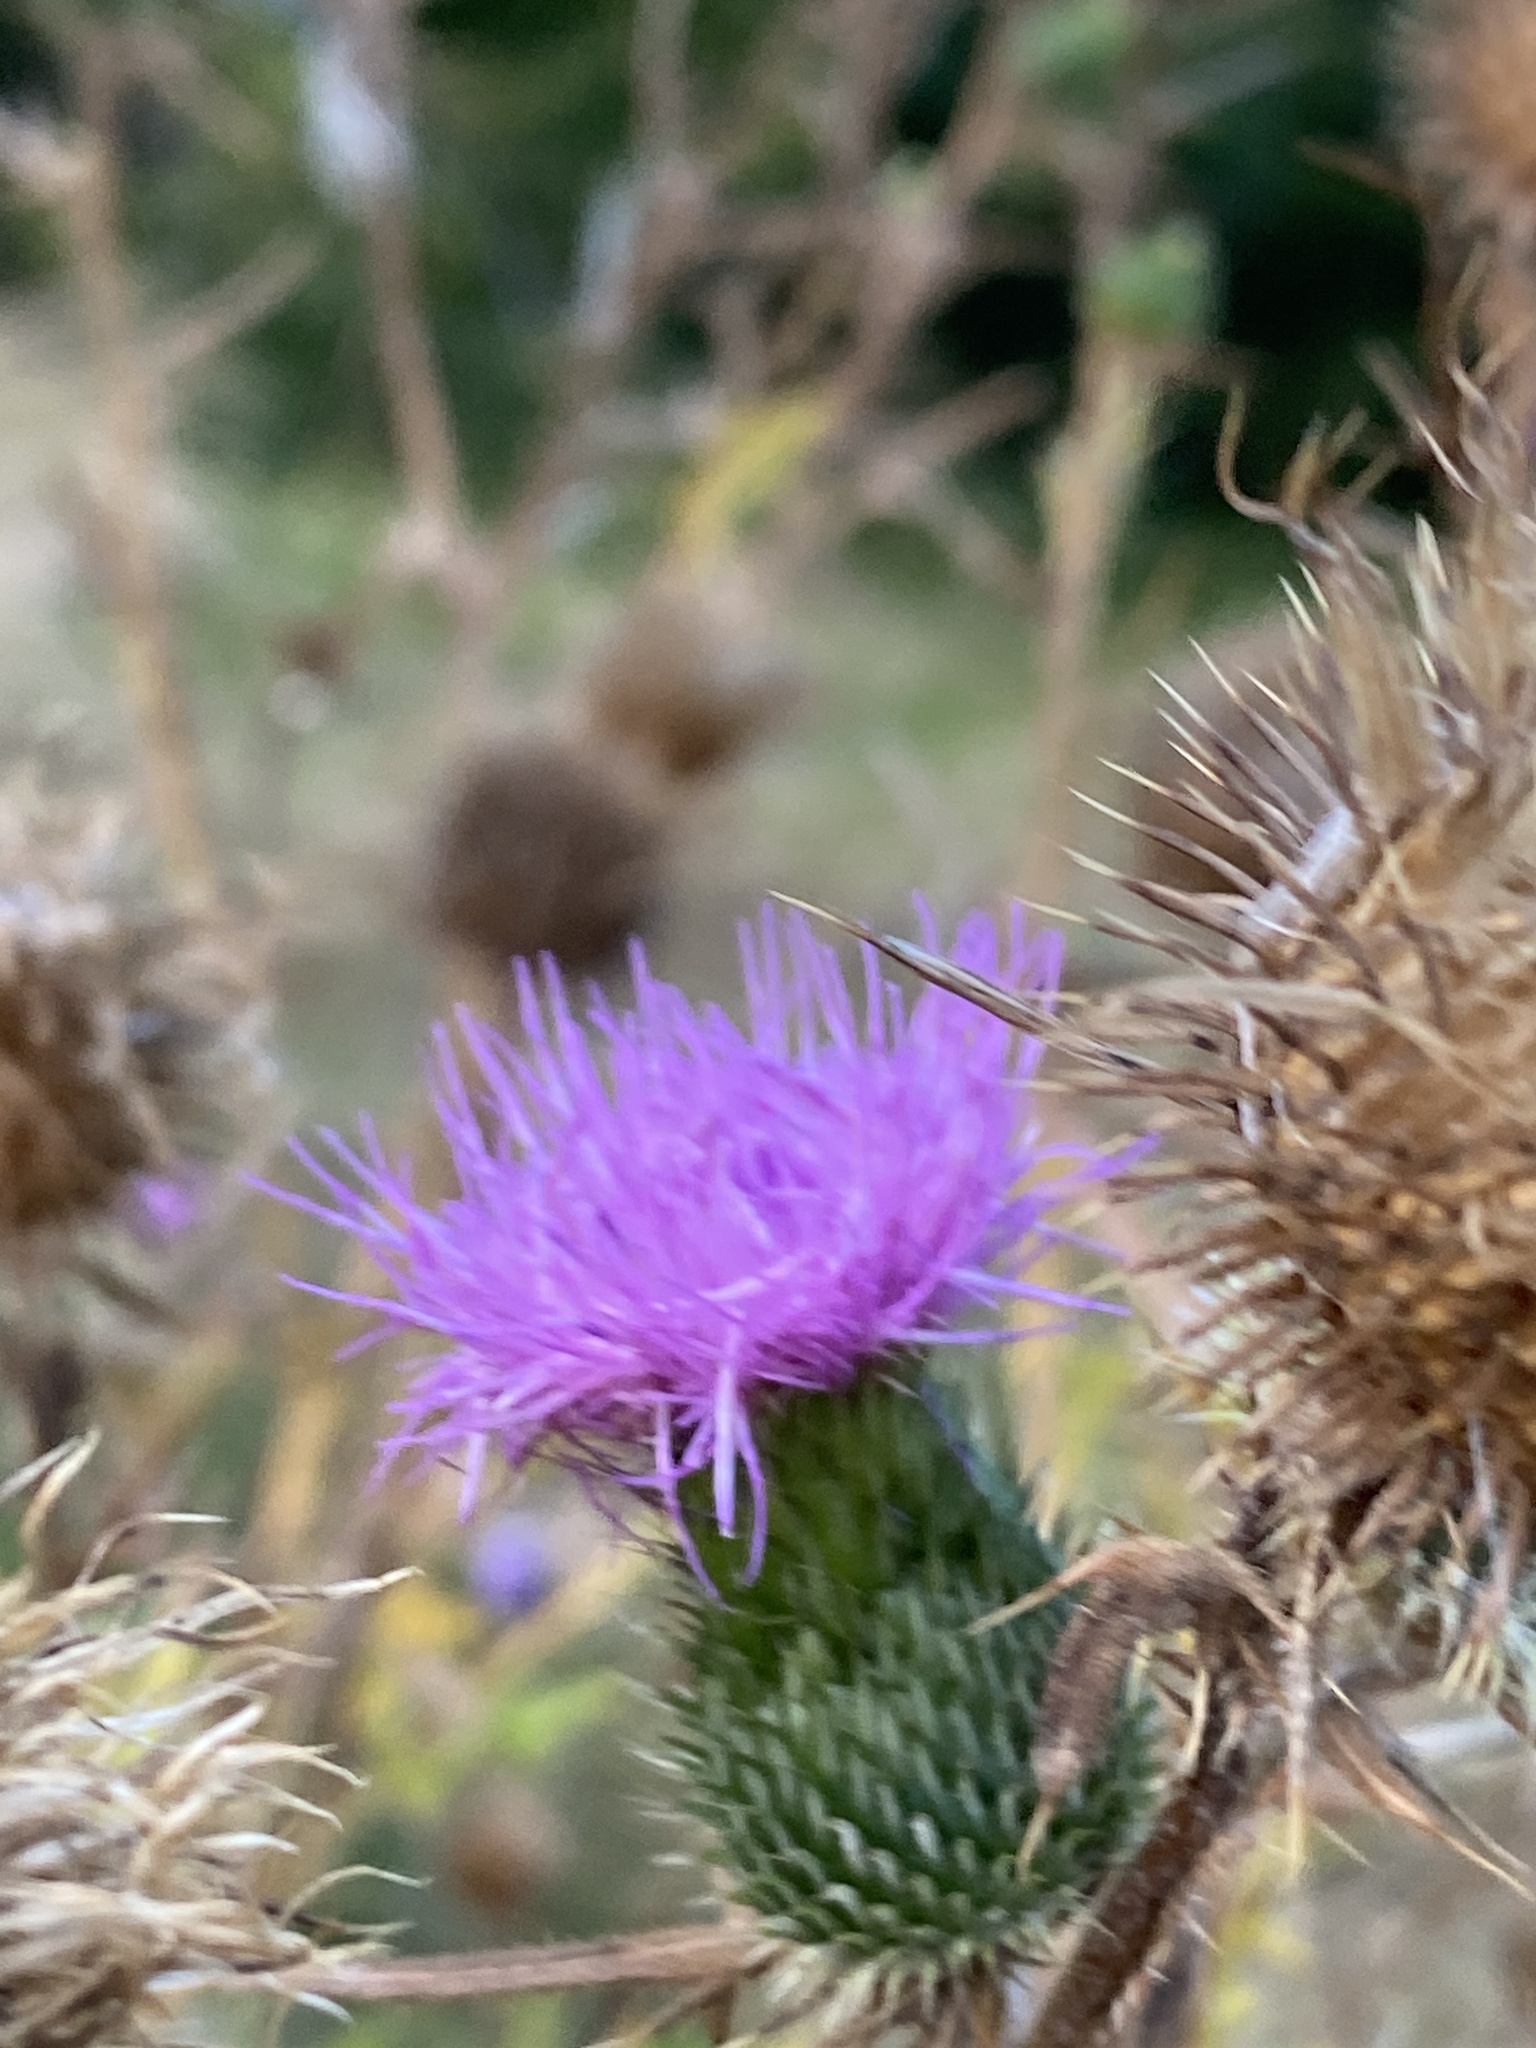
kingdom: Plantae
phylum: Tracheophyta
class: Magnoliopsida
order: Asterales
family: Asteraceae
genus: Cirsium
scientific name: Cirsium vulgare
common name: Bull thistle
